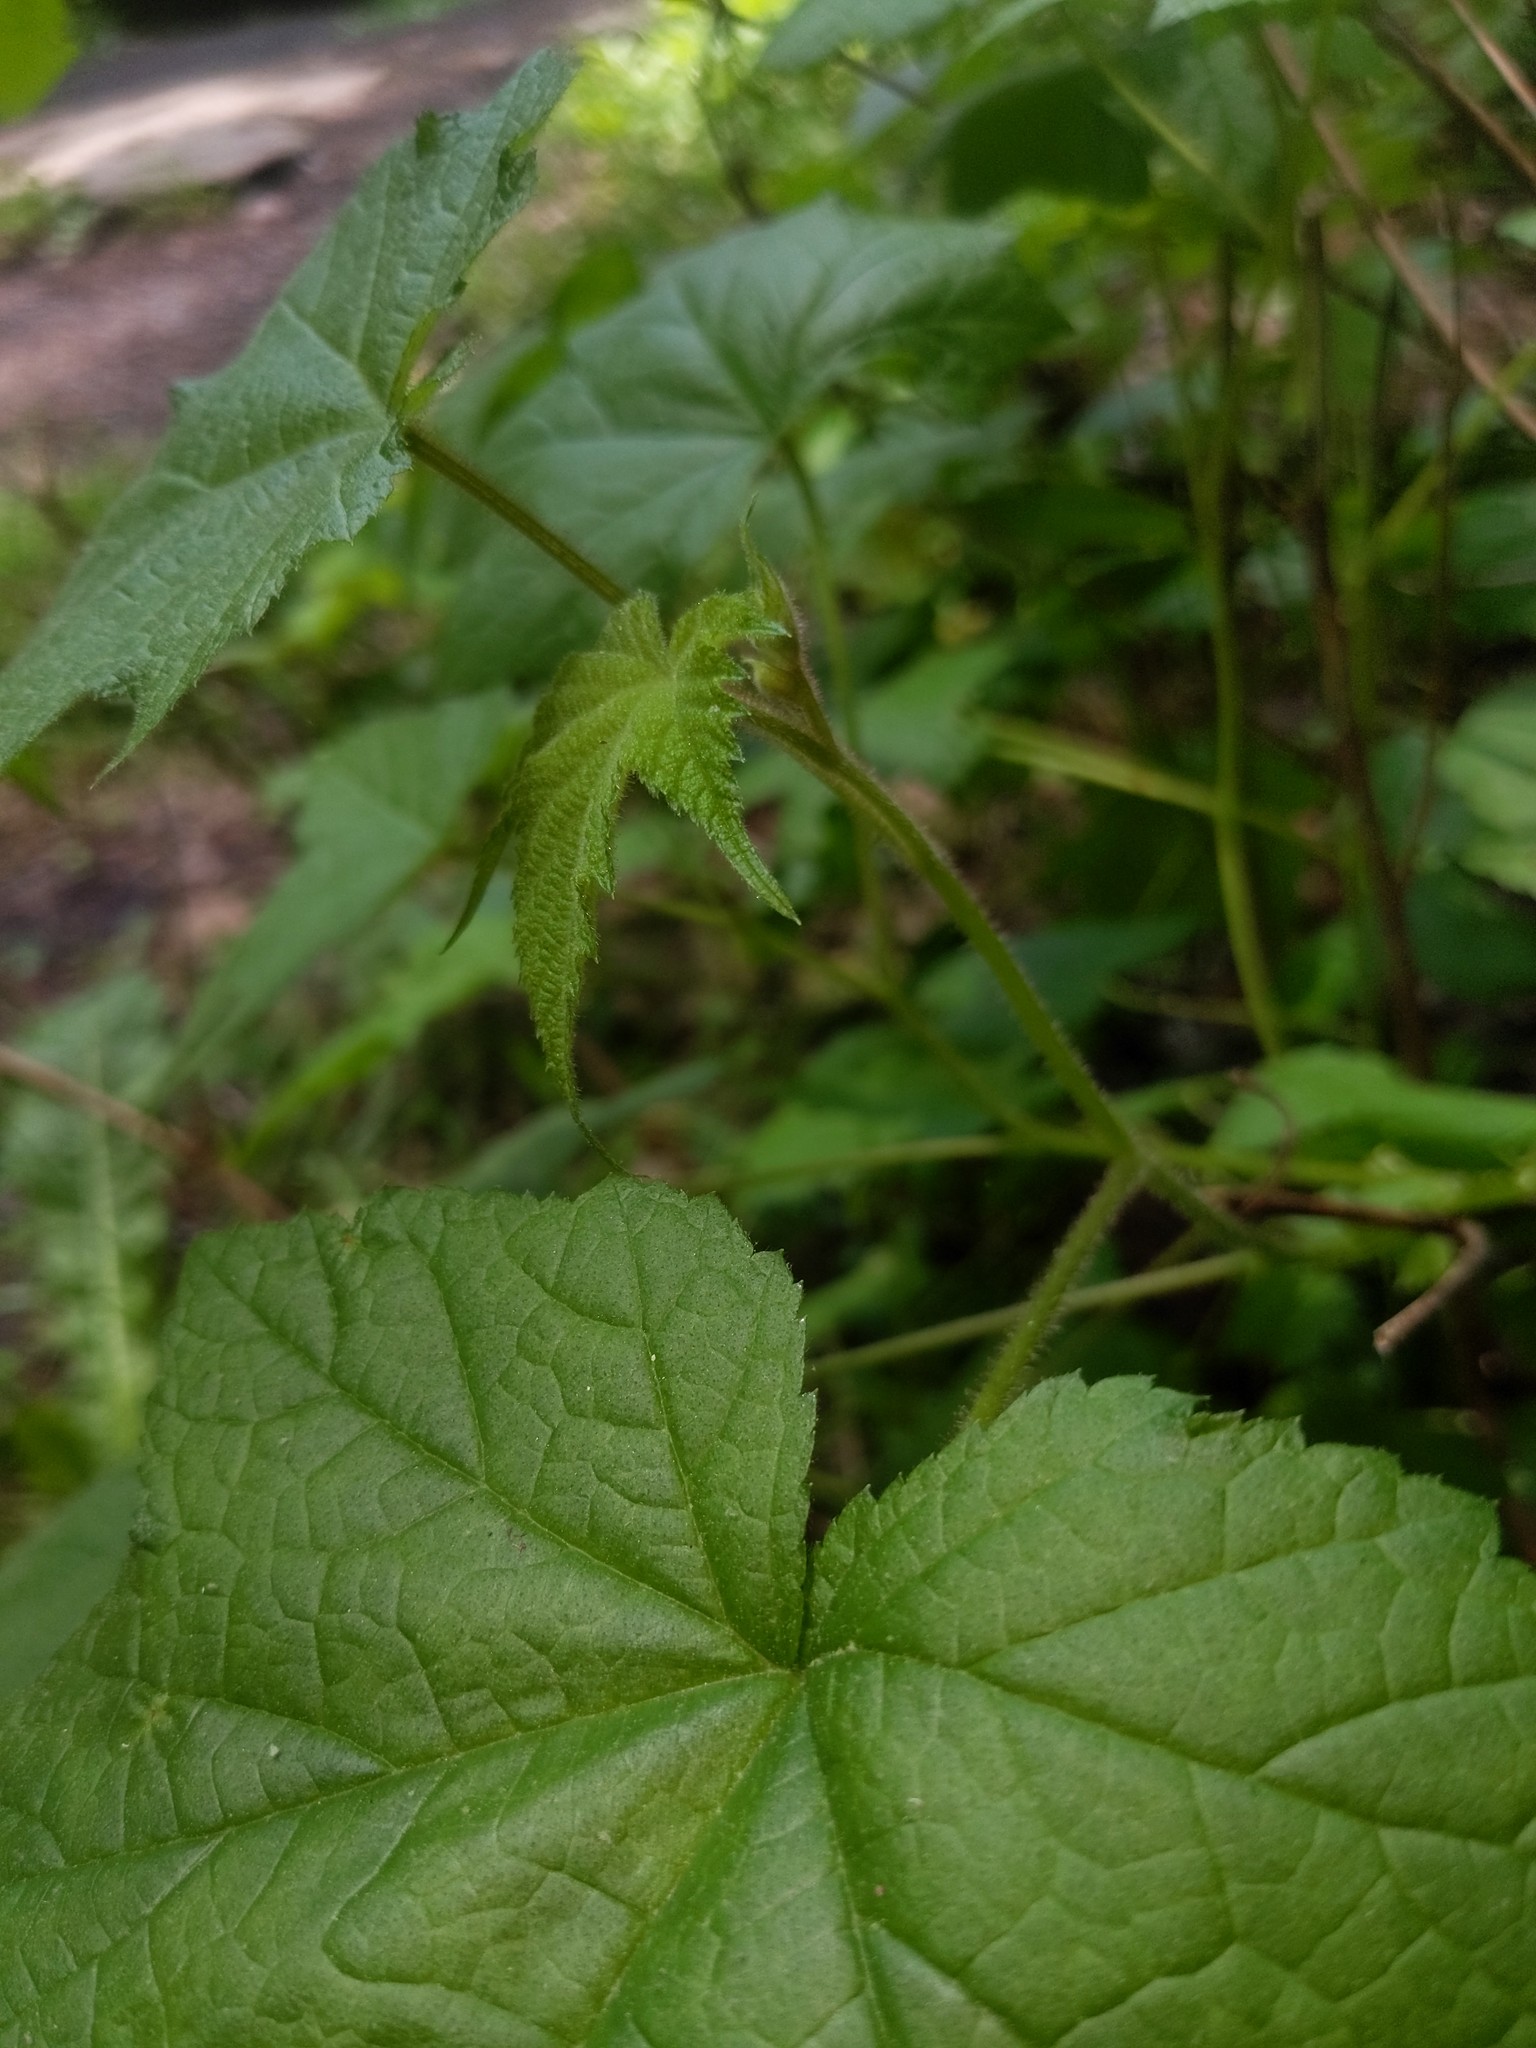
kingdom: Plantae
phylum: Tracheophyta
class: Magnoliopsida
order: Rosales
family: Rosaceae
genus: Rubus
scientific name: Rubus odoratus
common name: Purple-flowered raspberry
